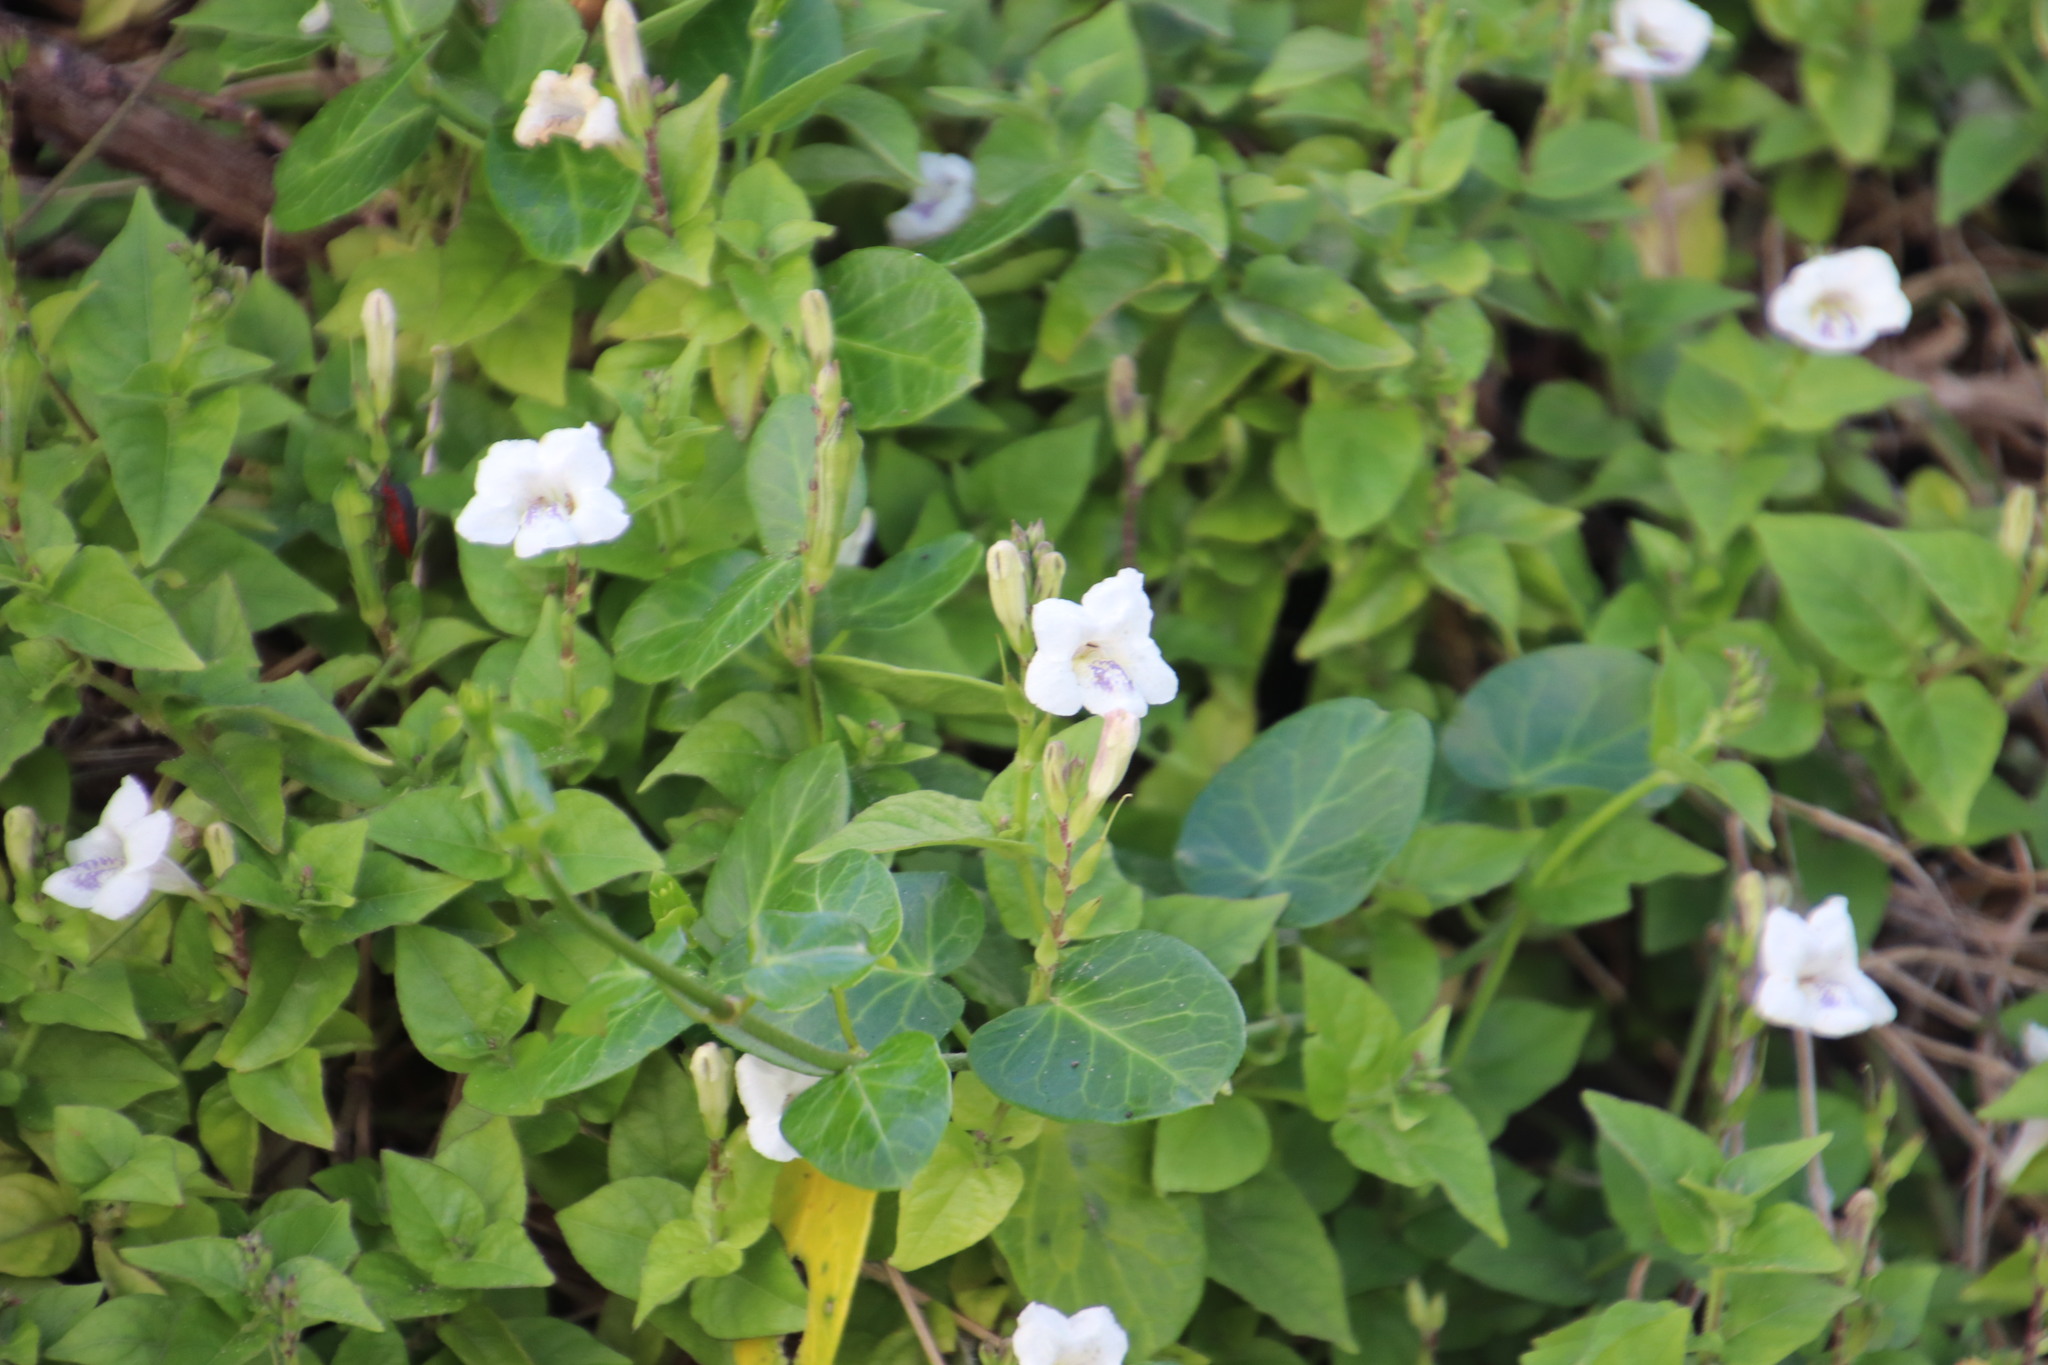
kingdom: Plantae
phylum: Tracheophyta
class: Magnoliopsida
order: Lamiales
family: Acanthaceae
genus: Asystasia
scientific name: Asystasia intrusa
